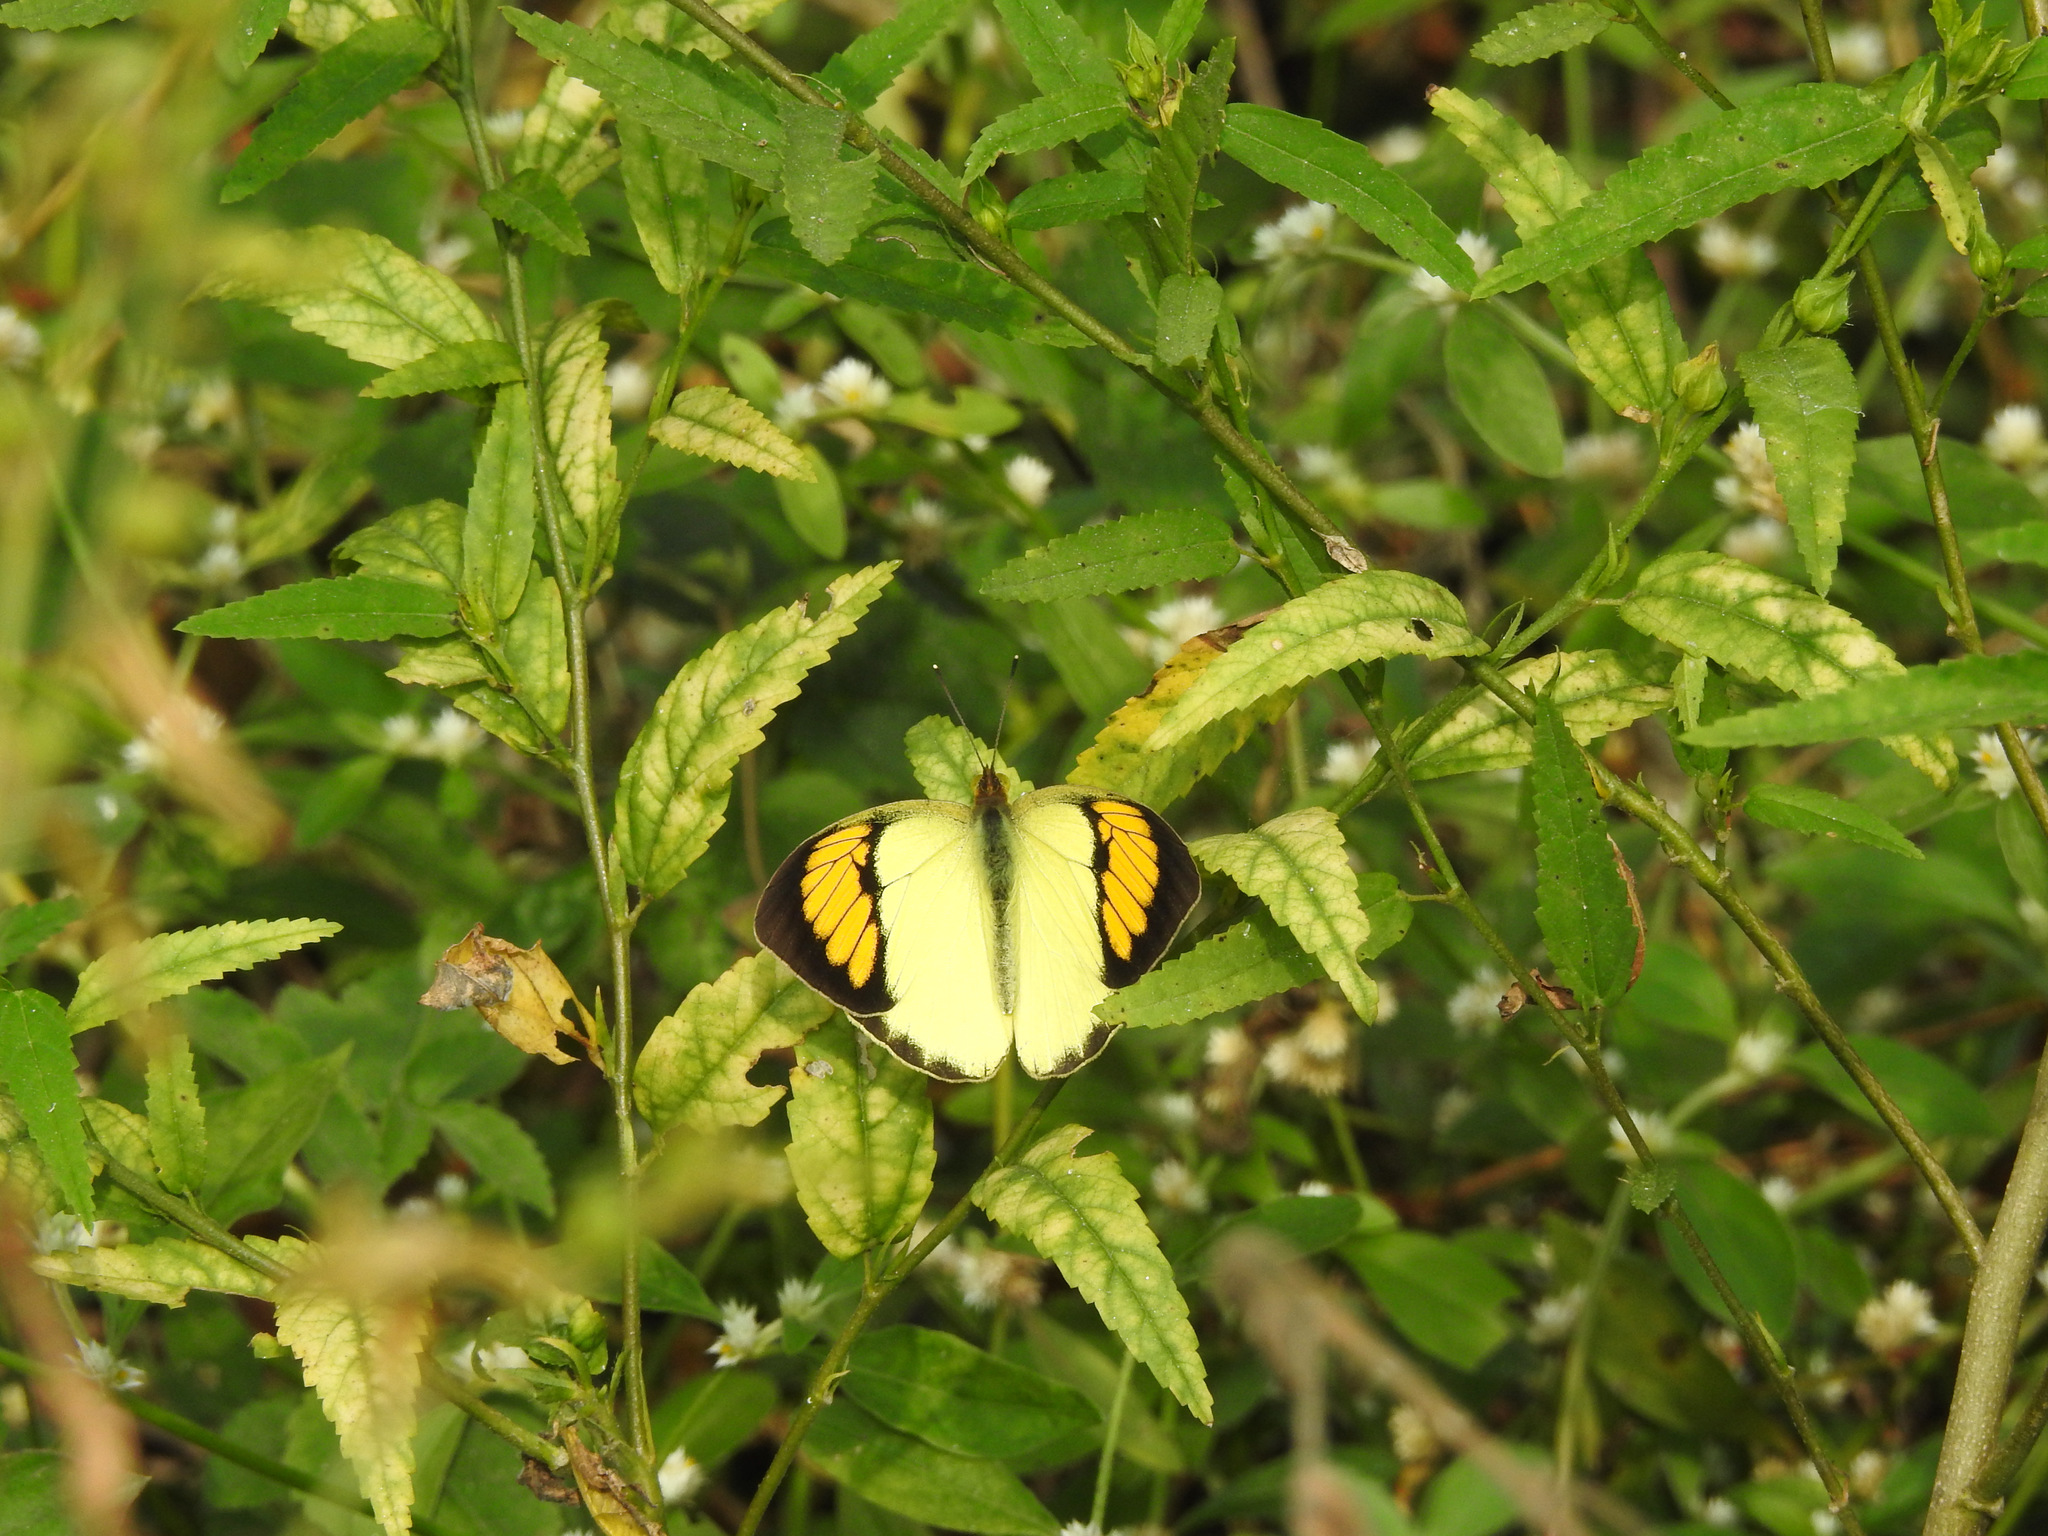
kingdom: Animalia
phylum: Arthropoda
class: Insecta
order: Lepidoptera
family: Pieridae
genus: Ixias
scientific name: Ixias pyrene
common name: Yellow orange tip
